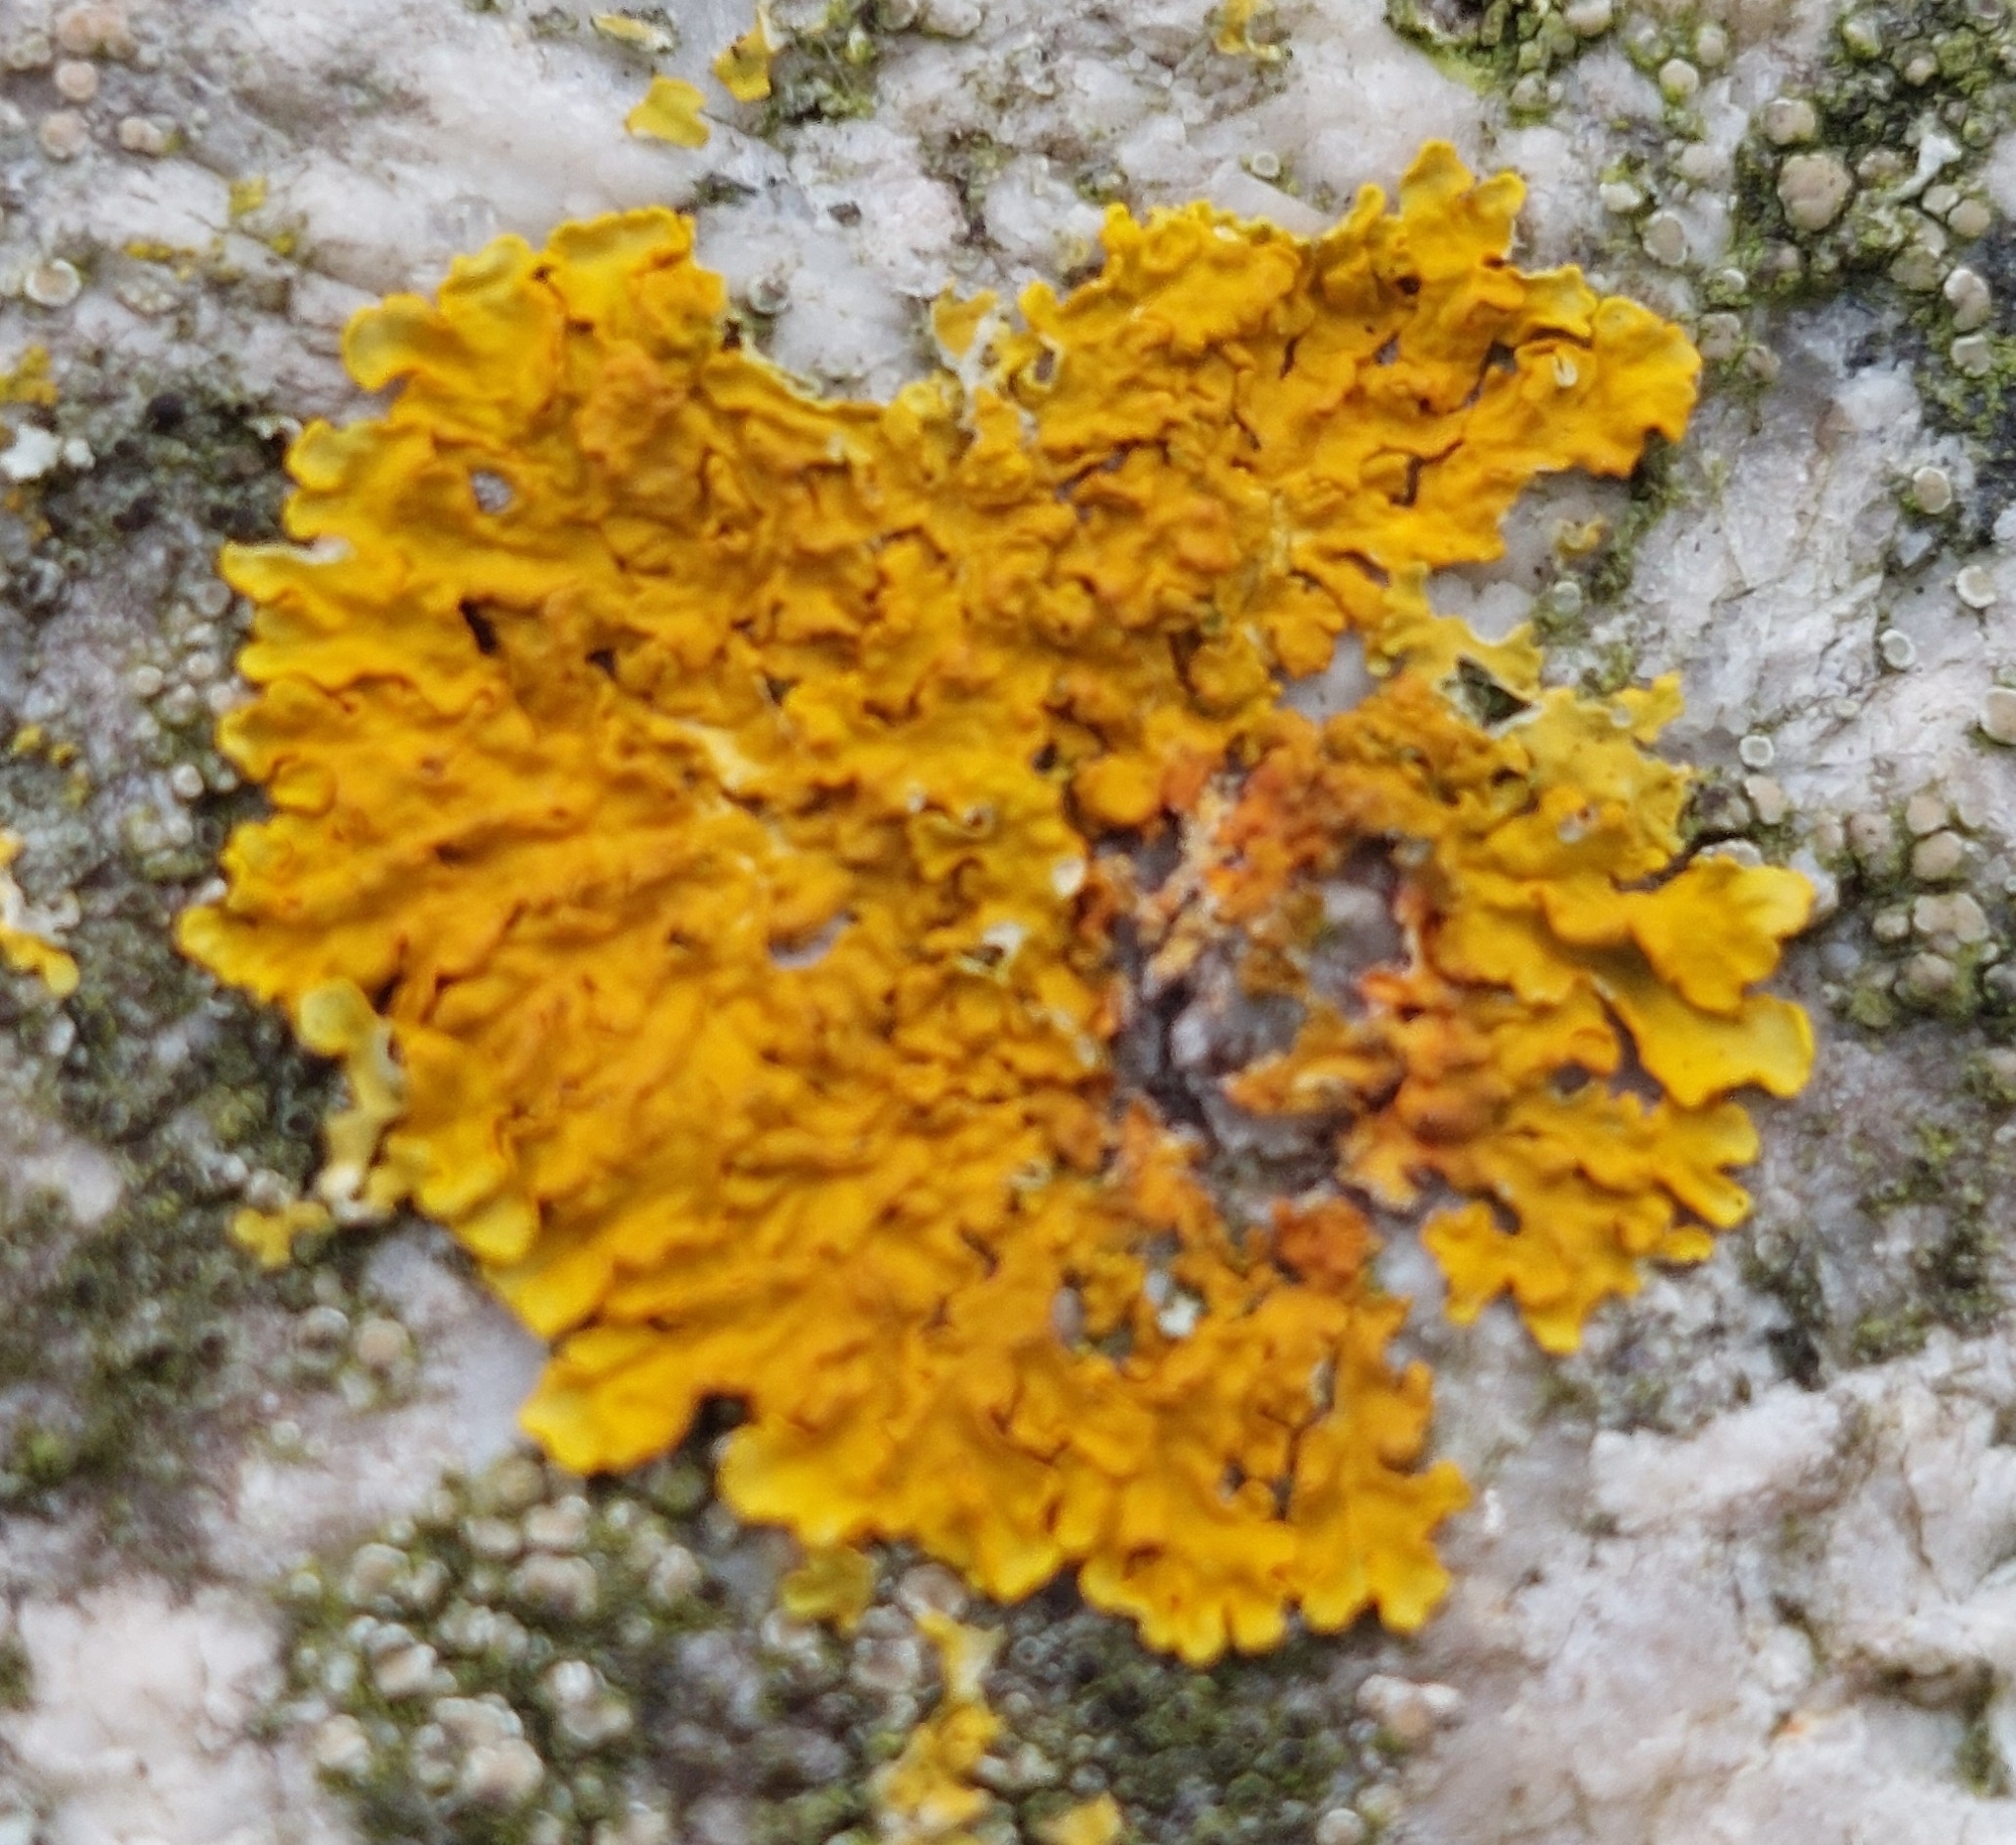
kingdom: Fungi
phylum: Ascomycota
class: Lecanoromycetes
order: Teloschistales
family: Teloschistaceae
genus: Xanthoria
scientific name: Xanthoria parietina
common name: Common orange lichen
